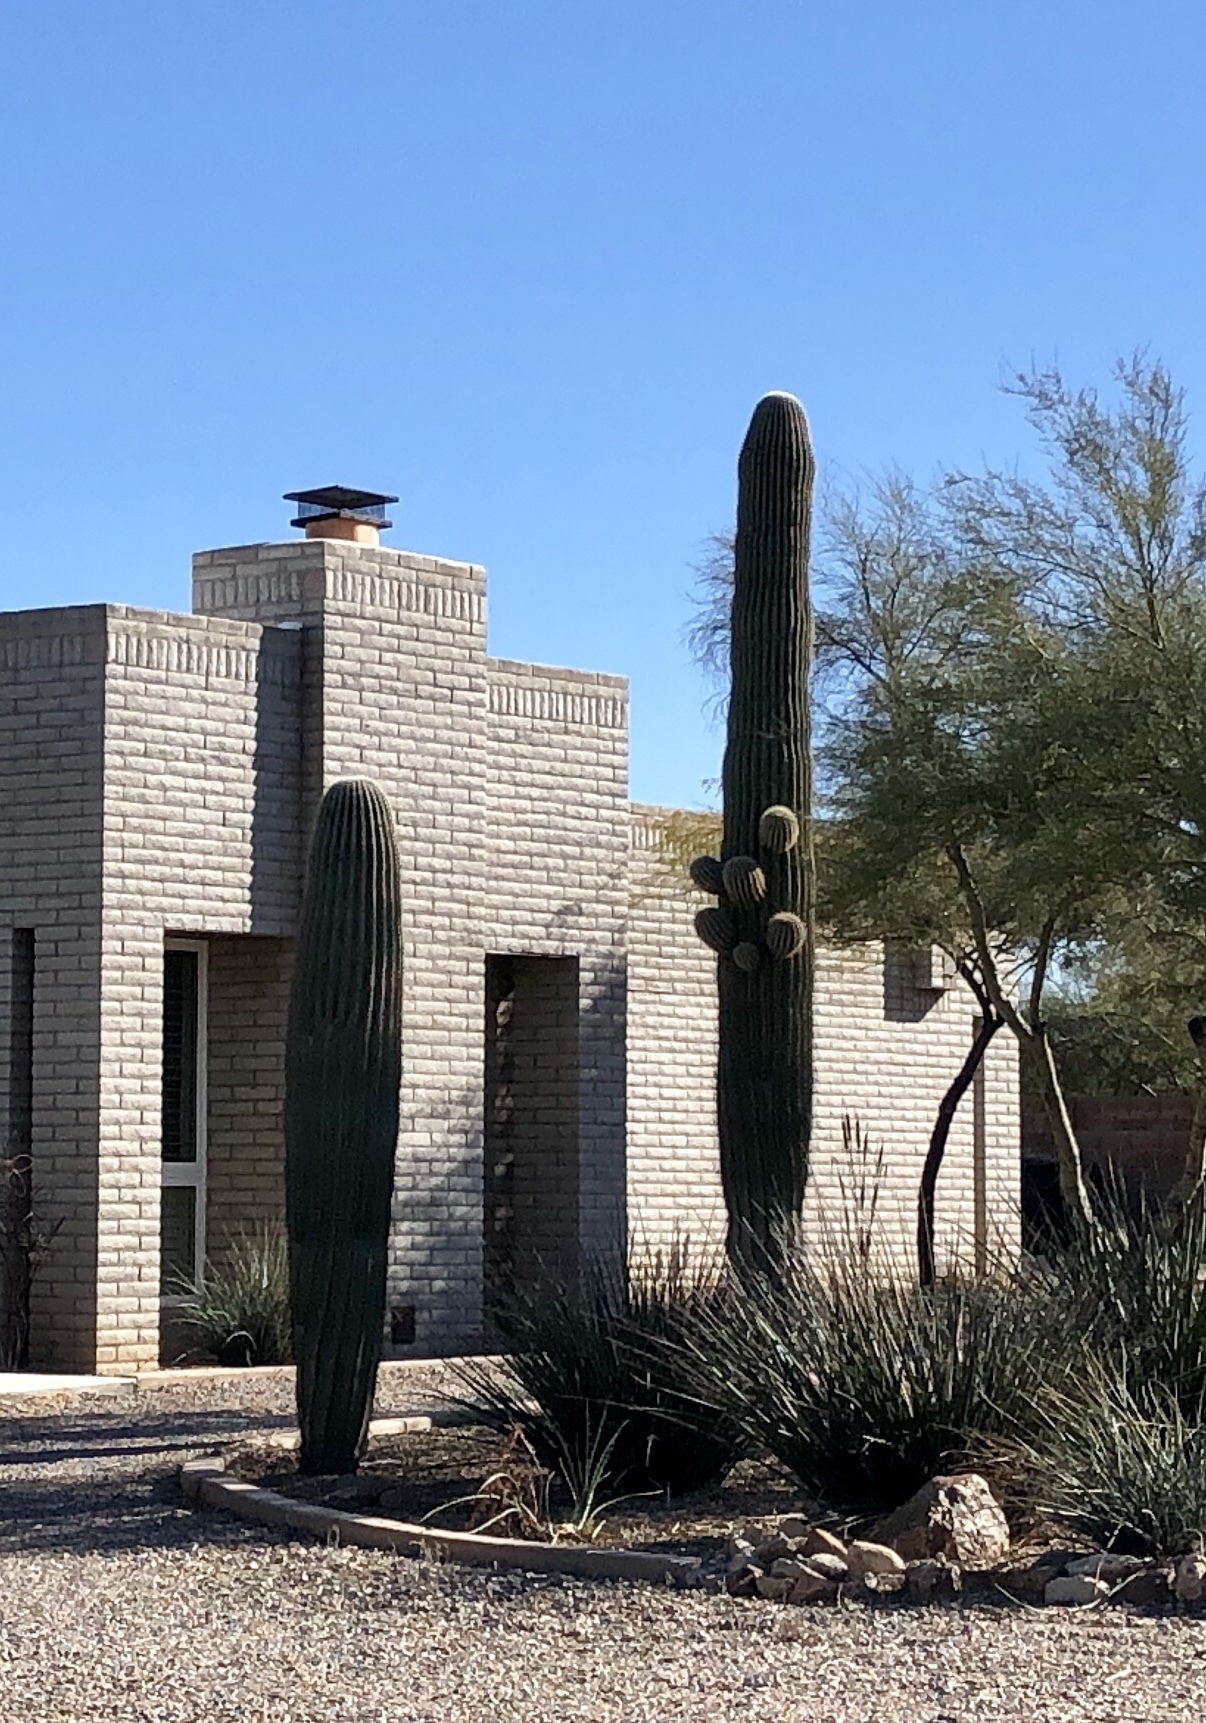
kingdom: Plantae
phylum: Tracheophyta
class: Magnoliopsida
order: Caryophyllales
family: Cactaceae
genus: Carnegiea
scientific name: Carnegiea gigantea
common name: Saguaro
